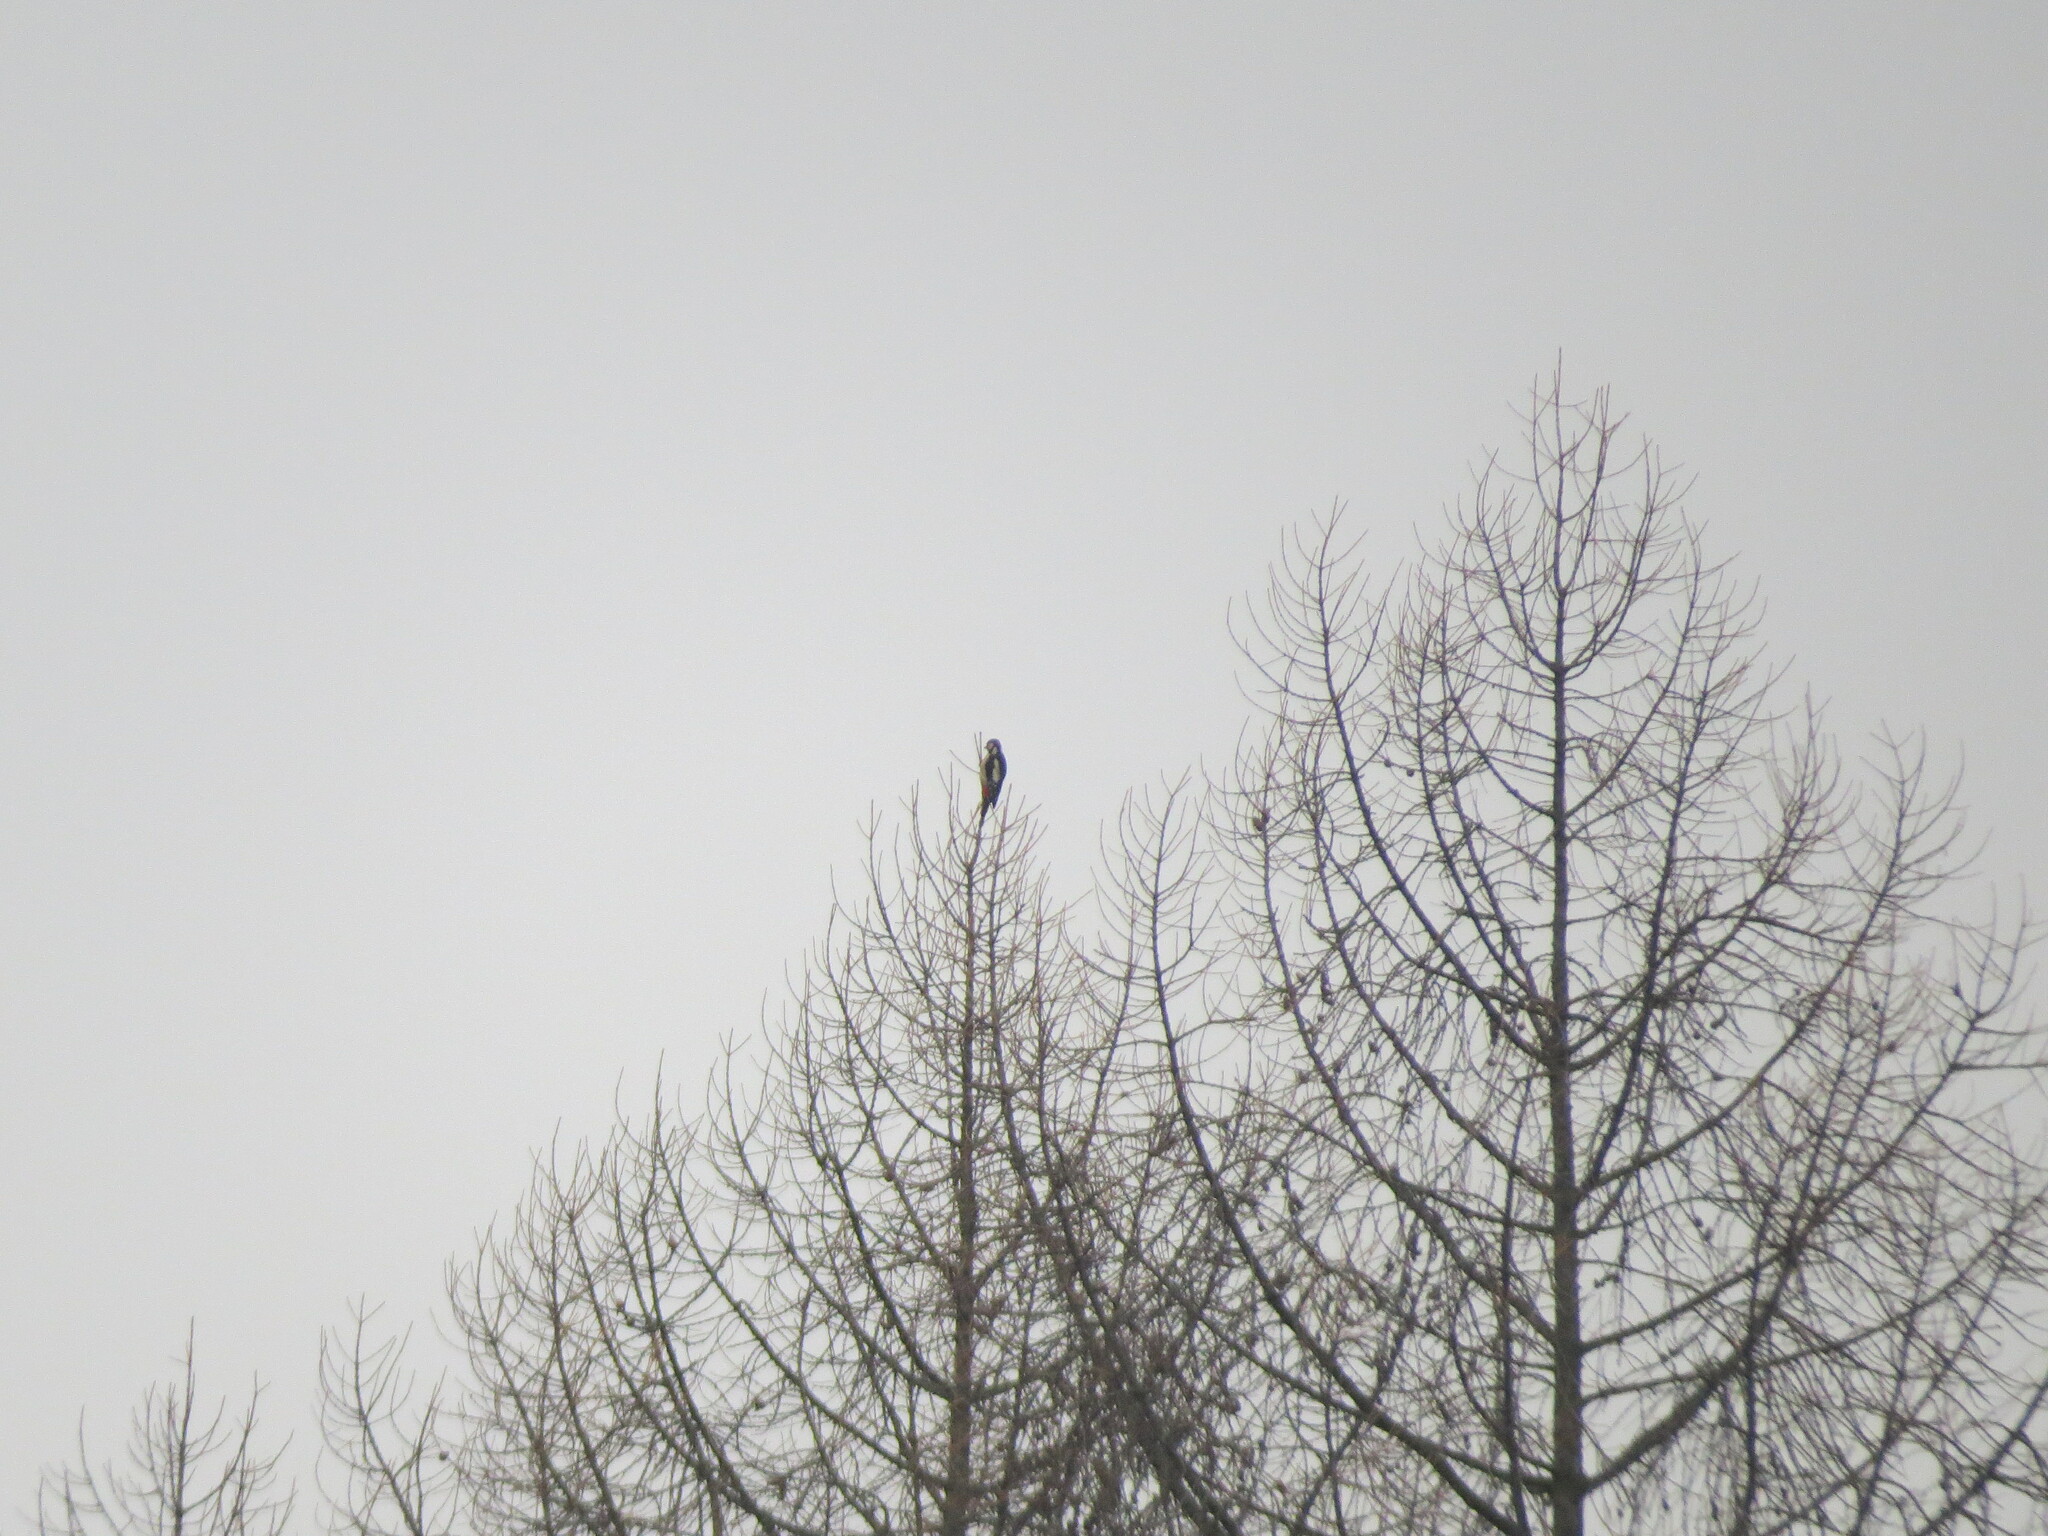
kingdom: Animalia
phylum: Chordata
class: Aves
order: Piciformes
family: Picidae
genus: Dendrocopos
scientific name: Dendrocopos major
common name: Great spotted woodpecker
